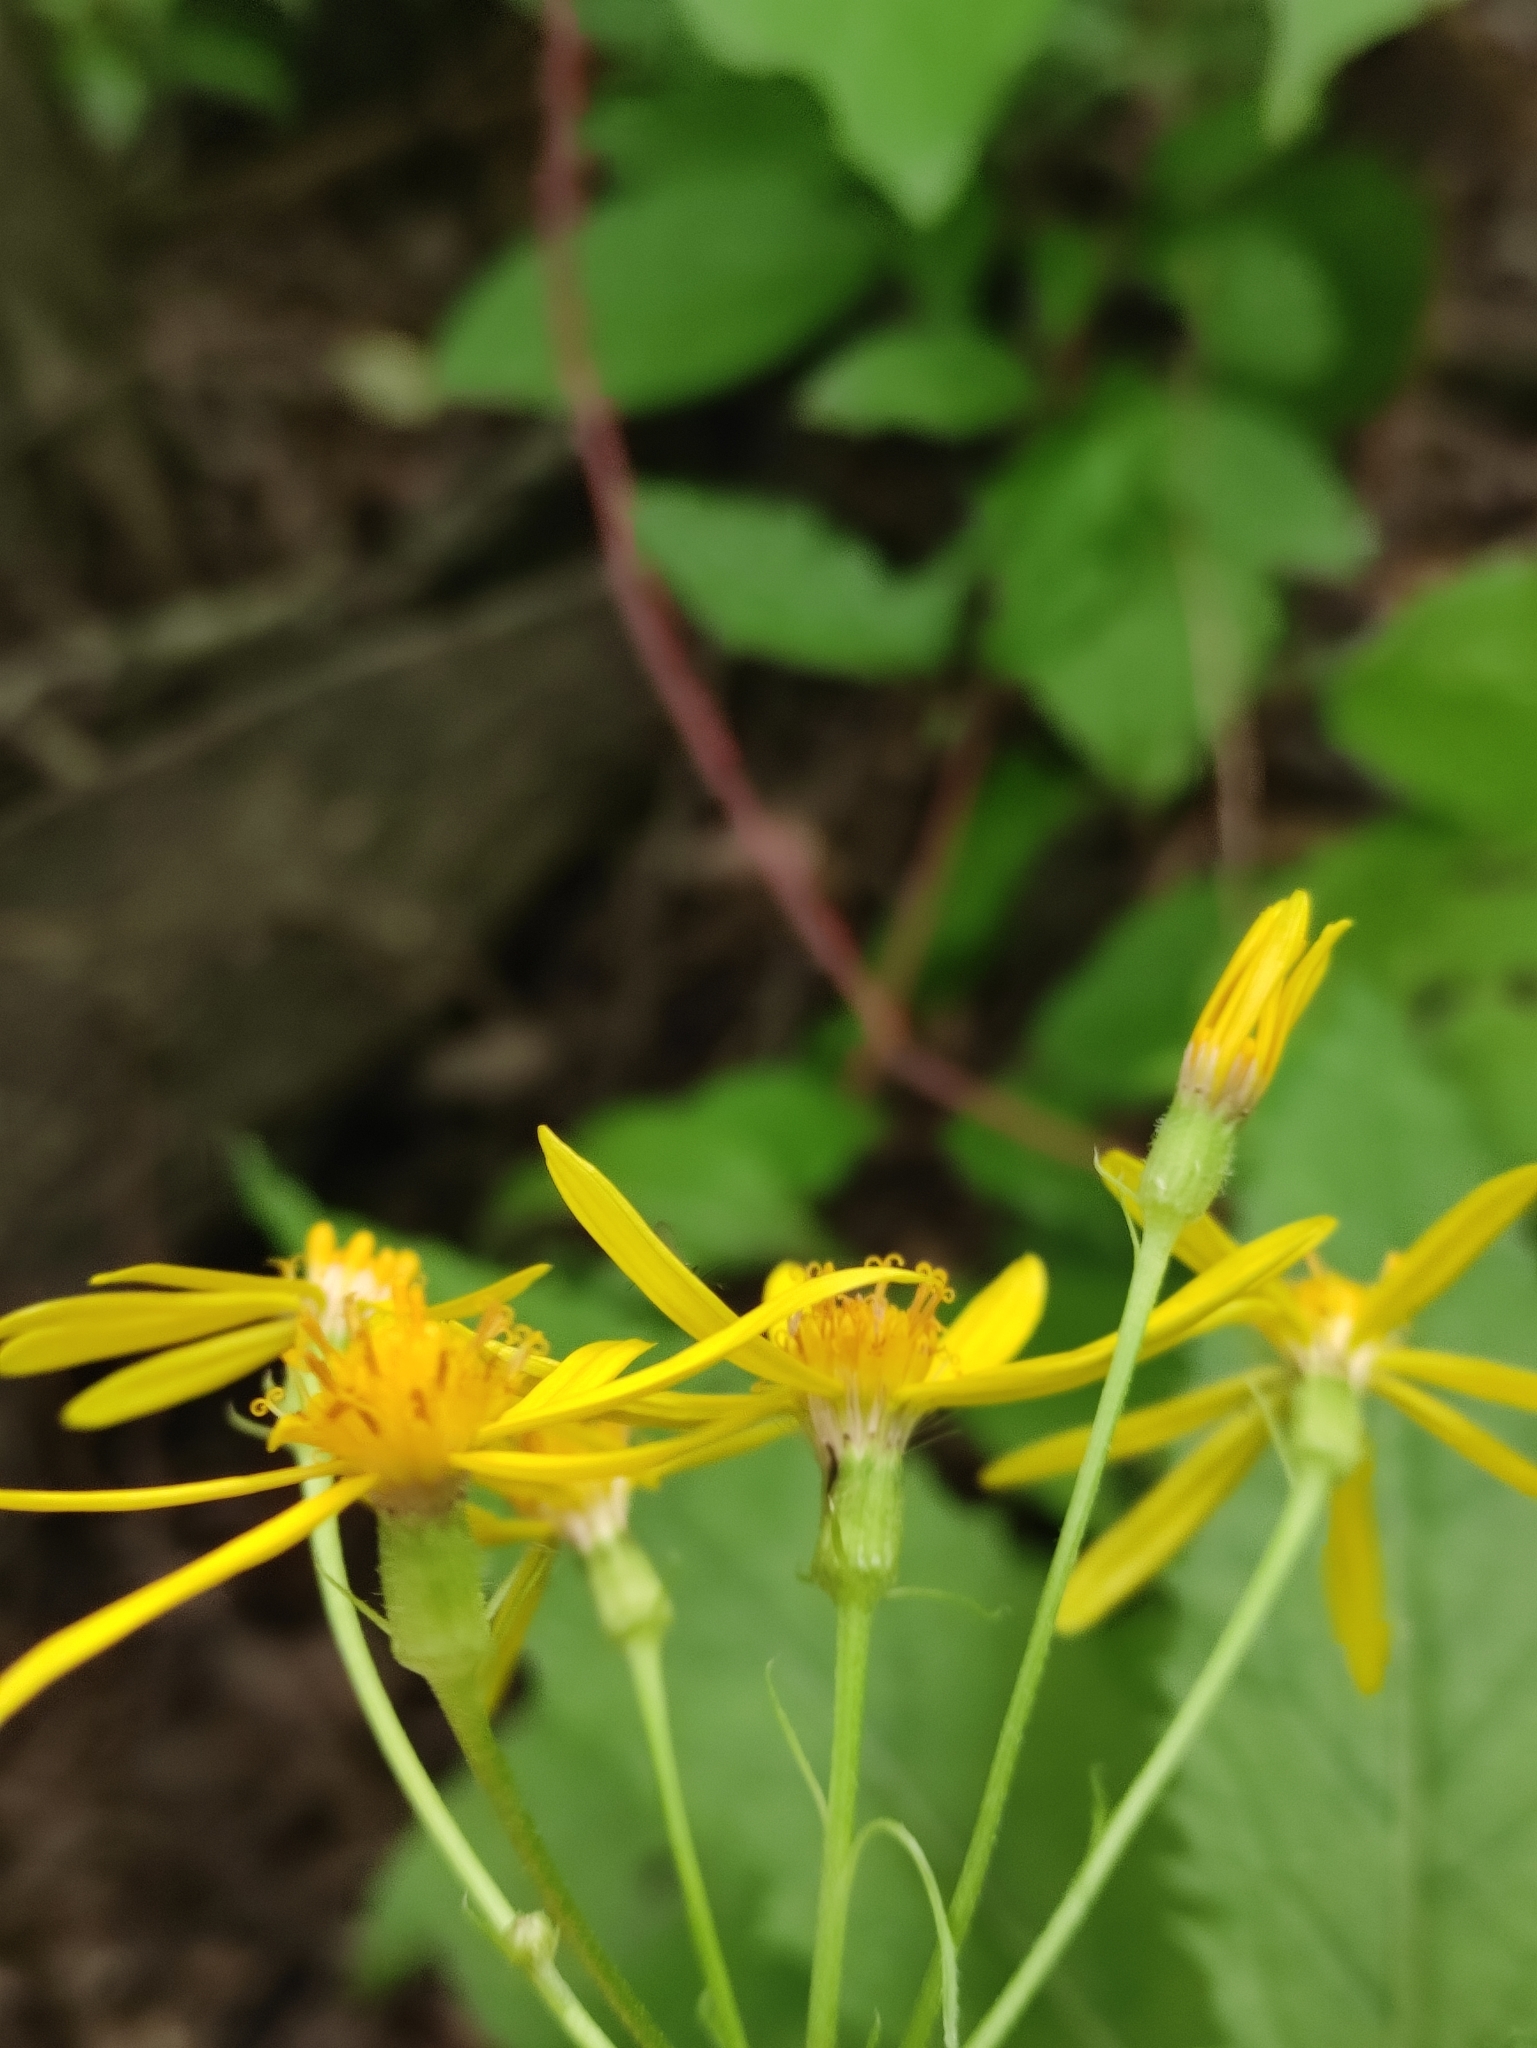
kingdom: Plantae
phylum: Tracheophyta
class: Magnoliopsida
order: Asterales
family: Asteraceae
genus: Senecio
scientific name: Senecio nemorensis
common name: Alpine ragwort
